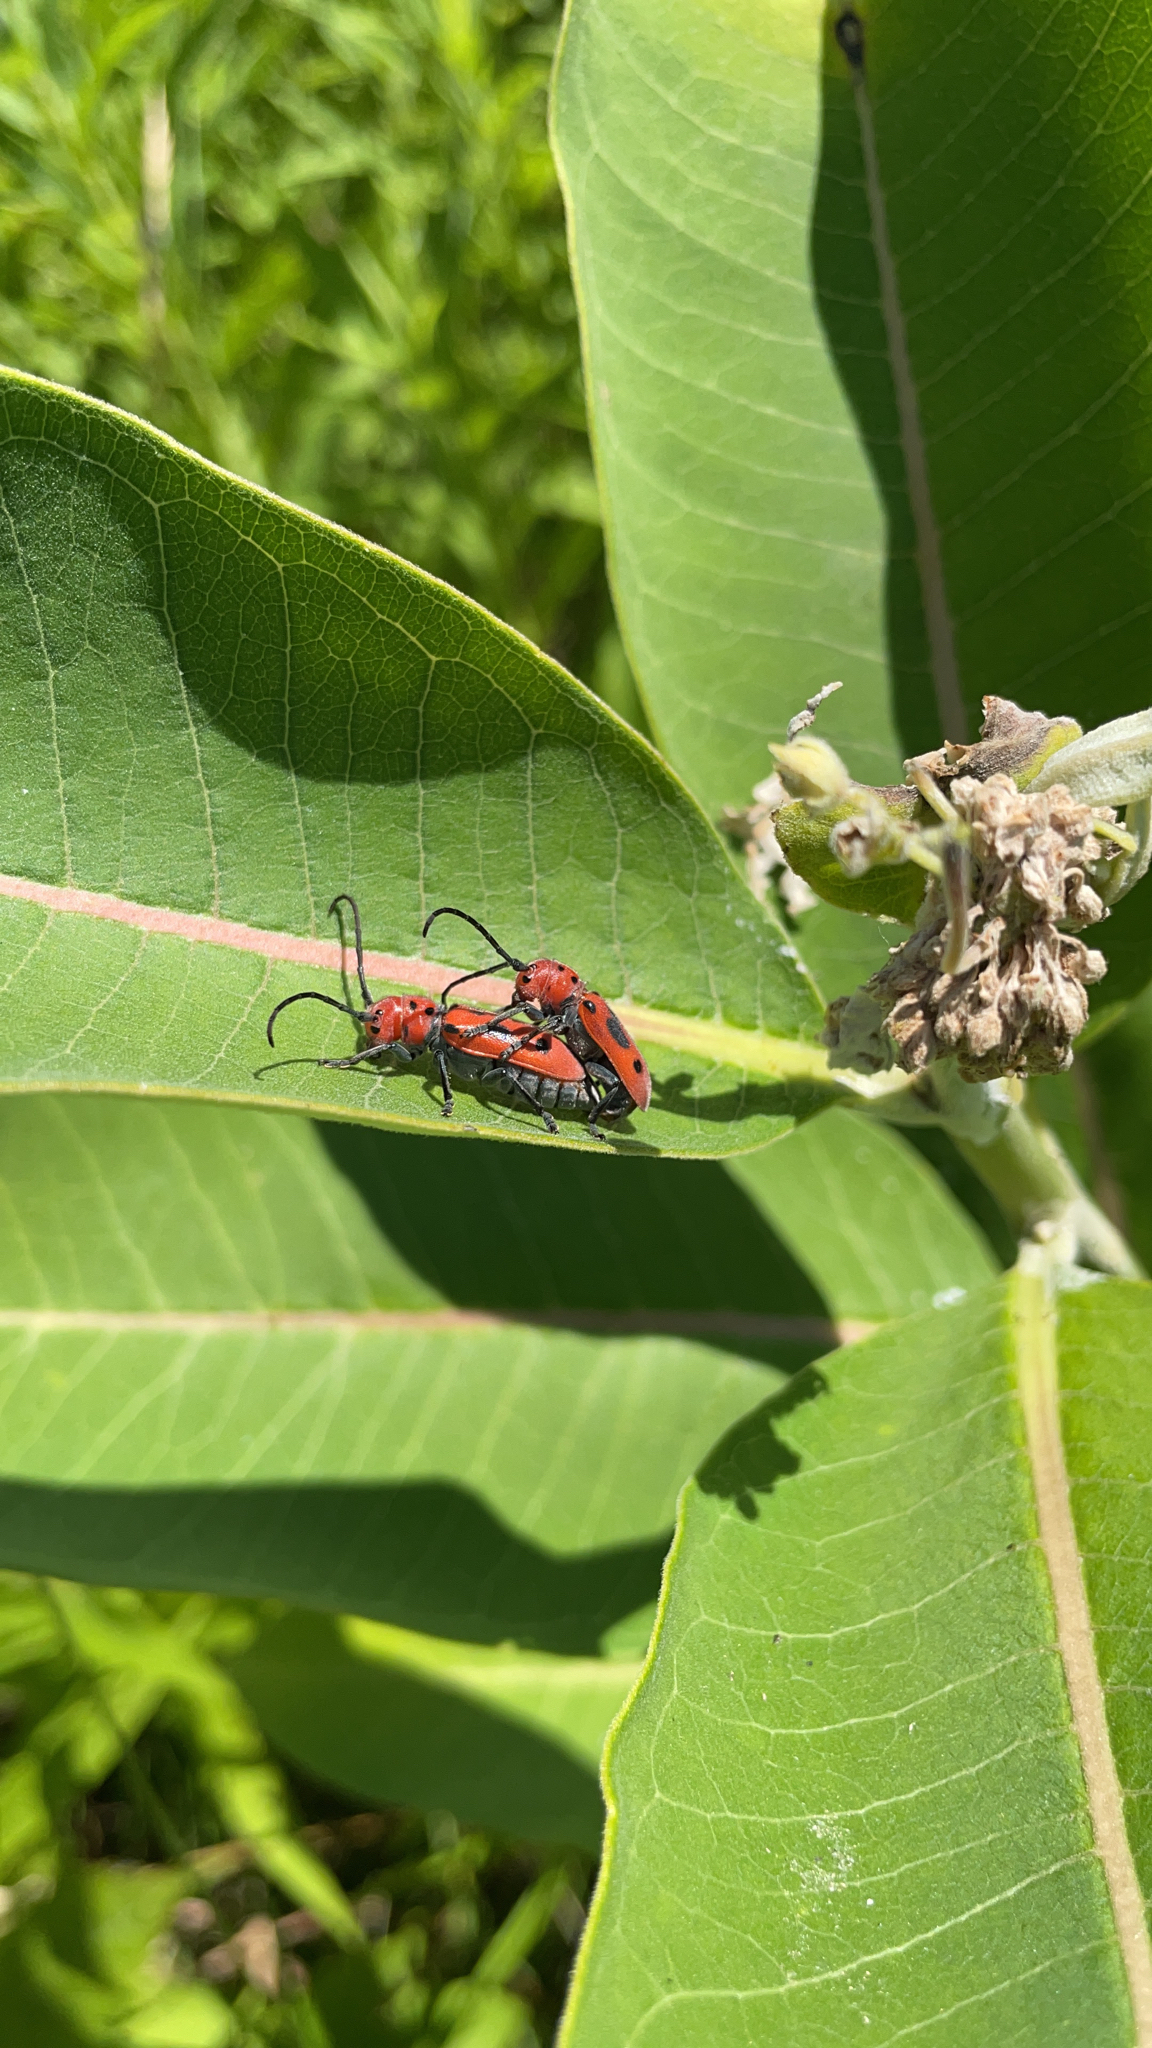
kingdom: Animalia
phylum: Arthropoda
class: Insecta
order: Coleoptera
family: Cerambycidae
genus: Tetraopes
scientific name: Tetraopes tetrophthalmus
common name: Red milkweed beetle
